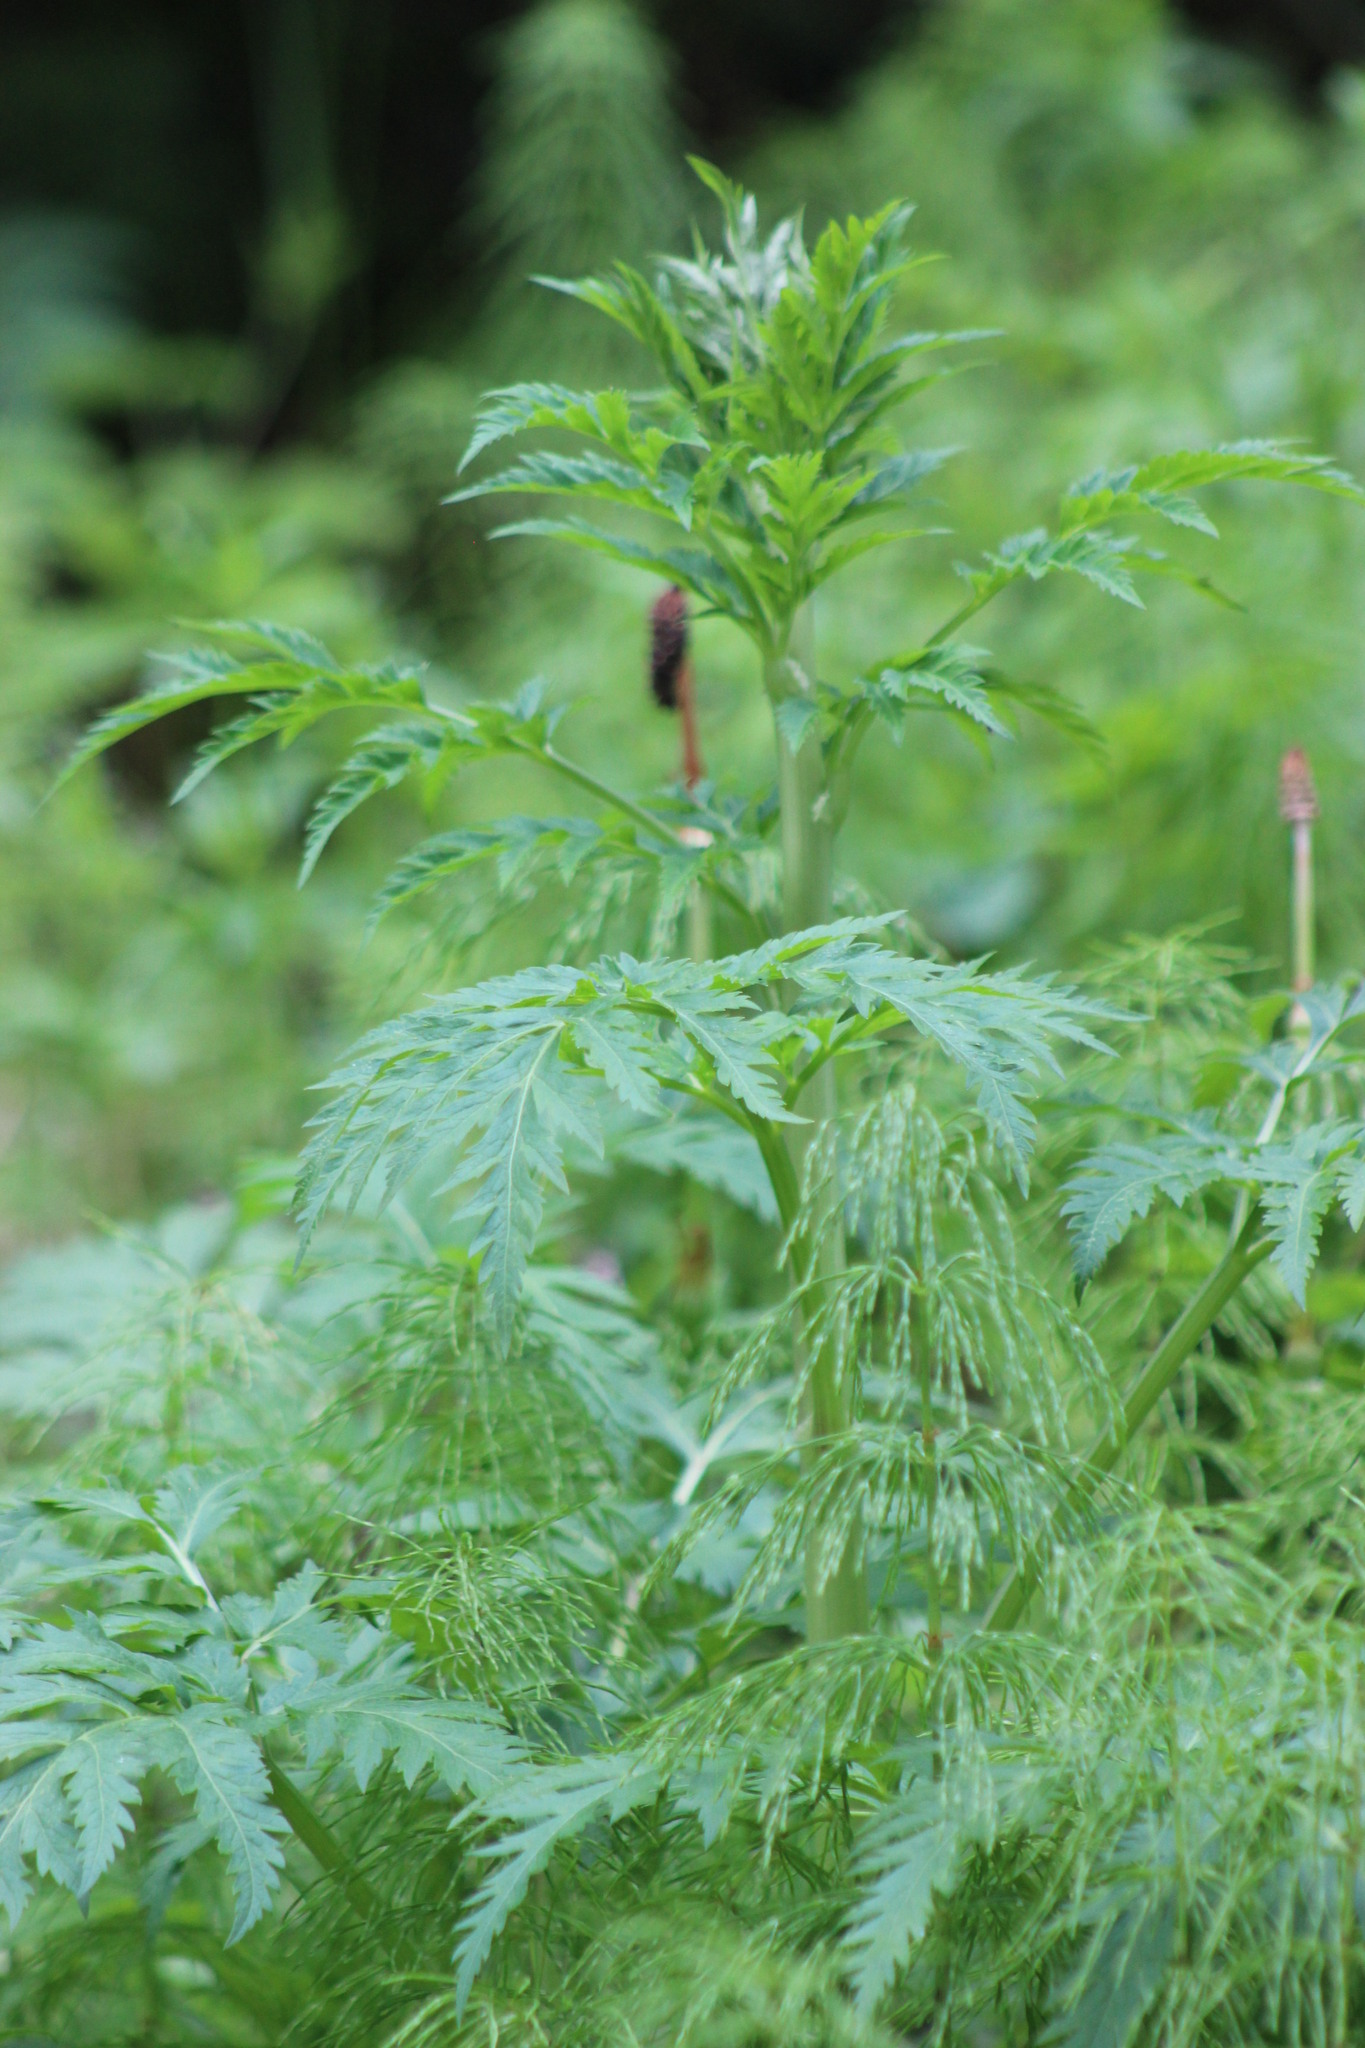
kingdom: Plantae
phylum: Tracheophyta
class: Magnoliopsida
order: Apiales
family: Apiaceae
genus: Pleurospermum
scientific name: Pleurospermum uralense
